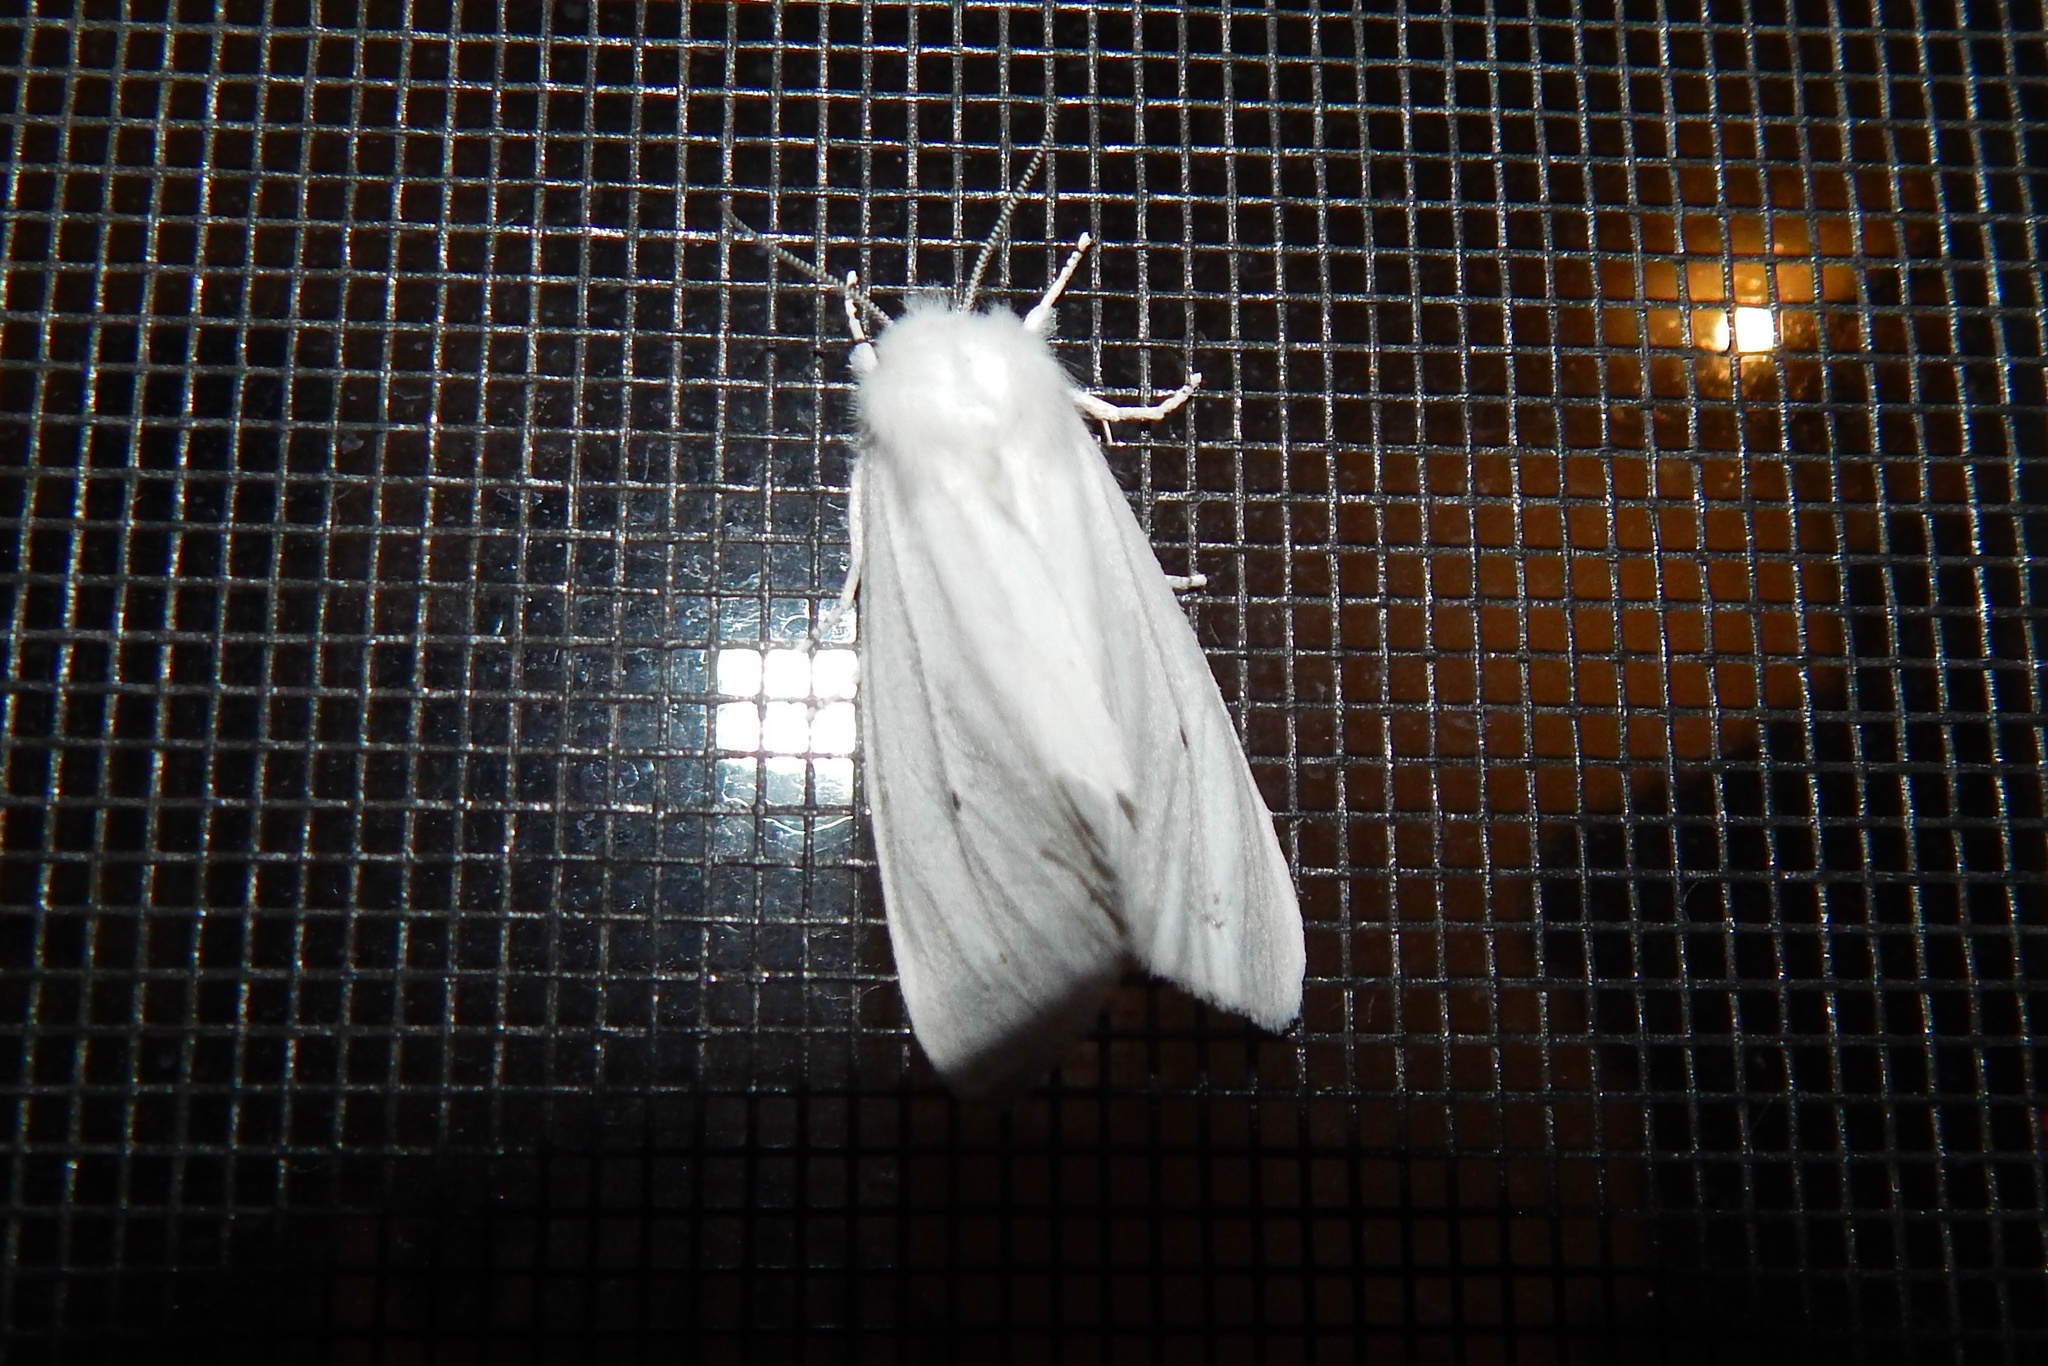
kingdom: Animalia
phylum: Arthropoda
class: Insecta
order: Lepidoptera
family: Erebidae
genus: Spilosoma
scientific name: Spilosoma virginica
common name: Virginia tiger moth
